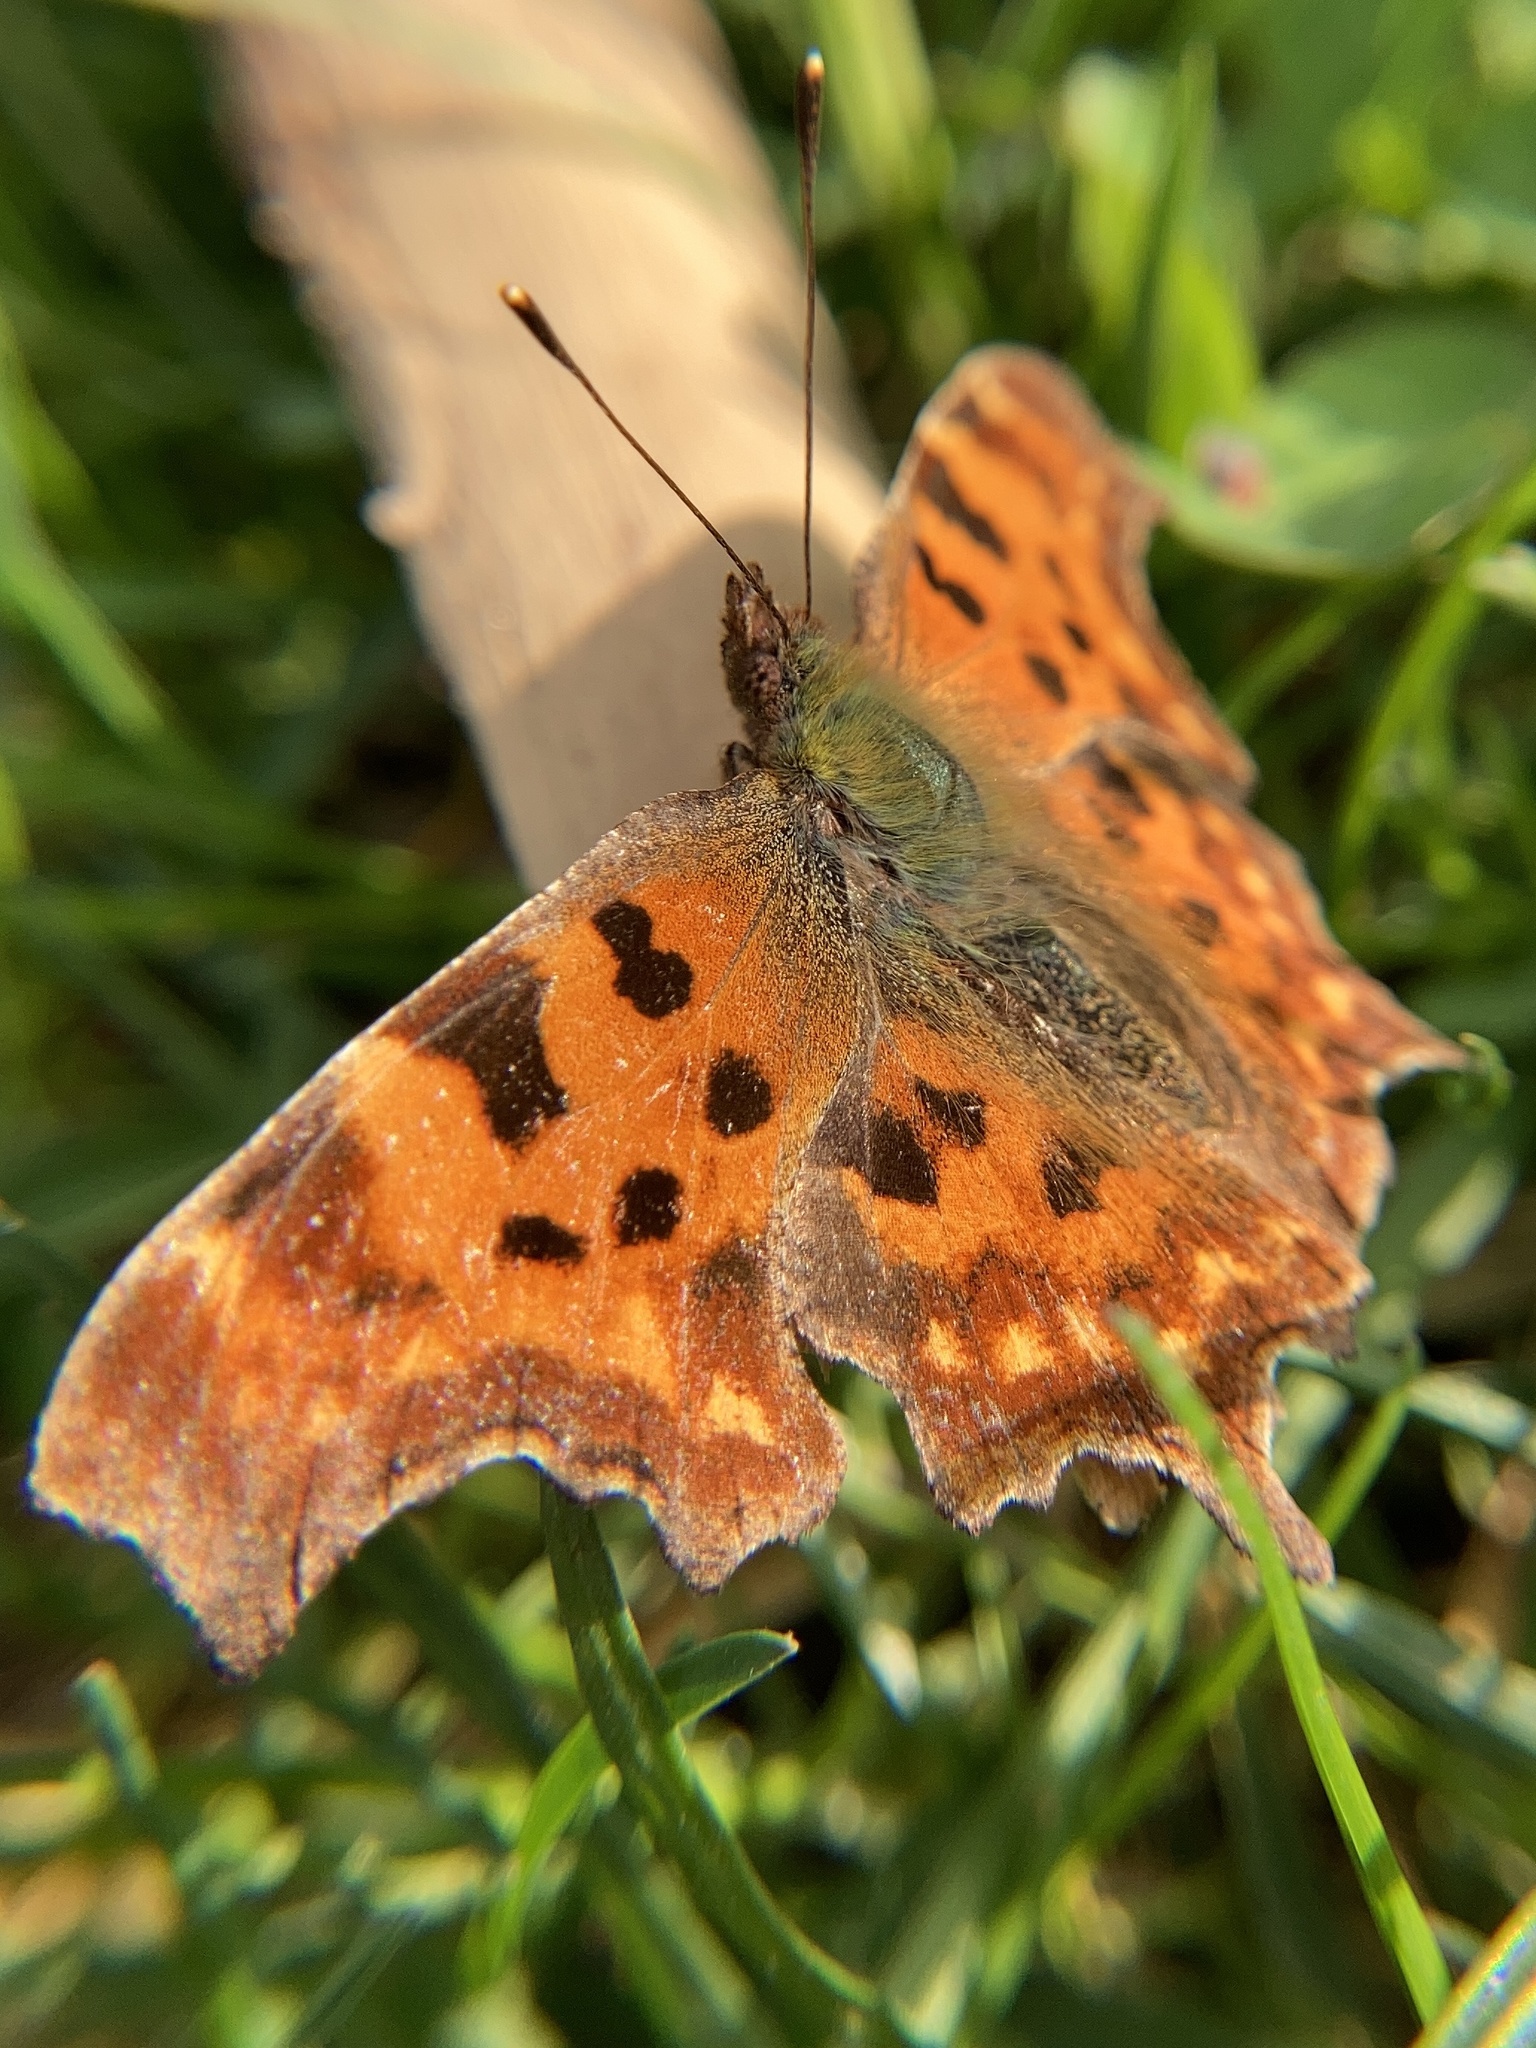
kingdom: Animalia
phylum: Arthropoda
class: Insecta
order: Lepidoptera
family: Nymphalidae
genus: Polygonia
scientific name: Polygonia c-album
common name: Comma
